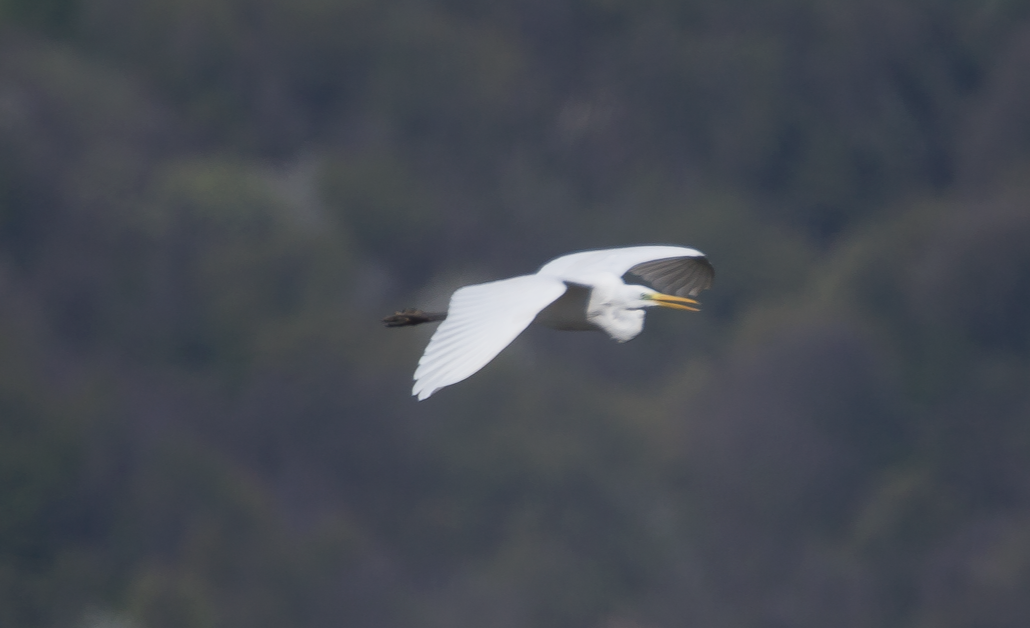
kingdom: Animalia
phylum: Chordata
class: Aves
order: Pelecaniformes
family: Ardeidae
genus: Ardea
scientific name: Ardea alba
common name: Great egret
